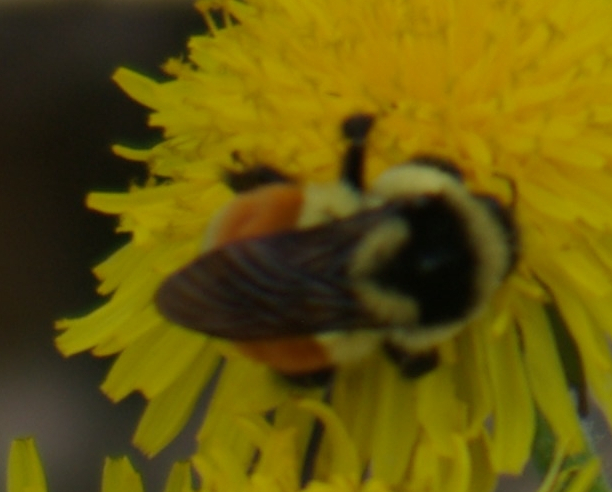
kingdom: Animalia
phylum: Arthropoda
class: Insecta
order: Hymenoptera
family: Apidae
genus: Bombus
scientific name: Bombus ternarius
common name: Tri-colored bumble bee
